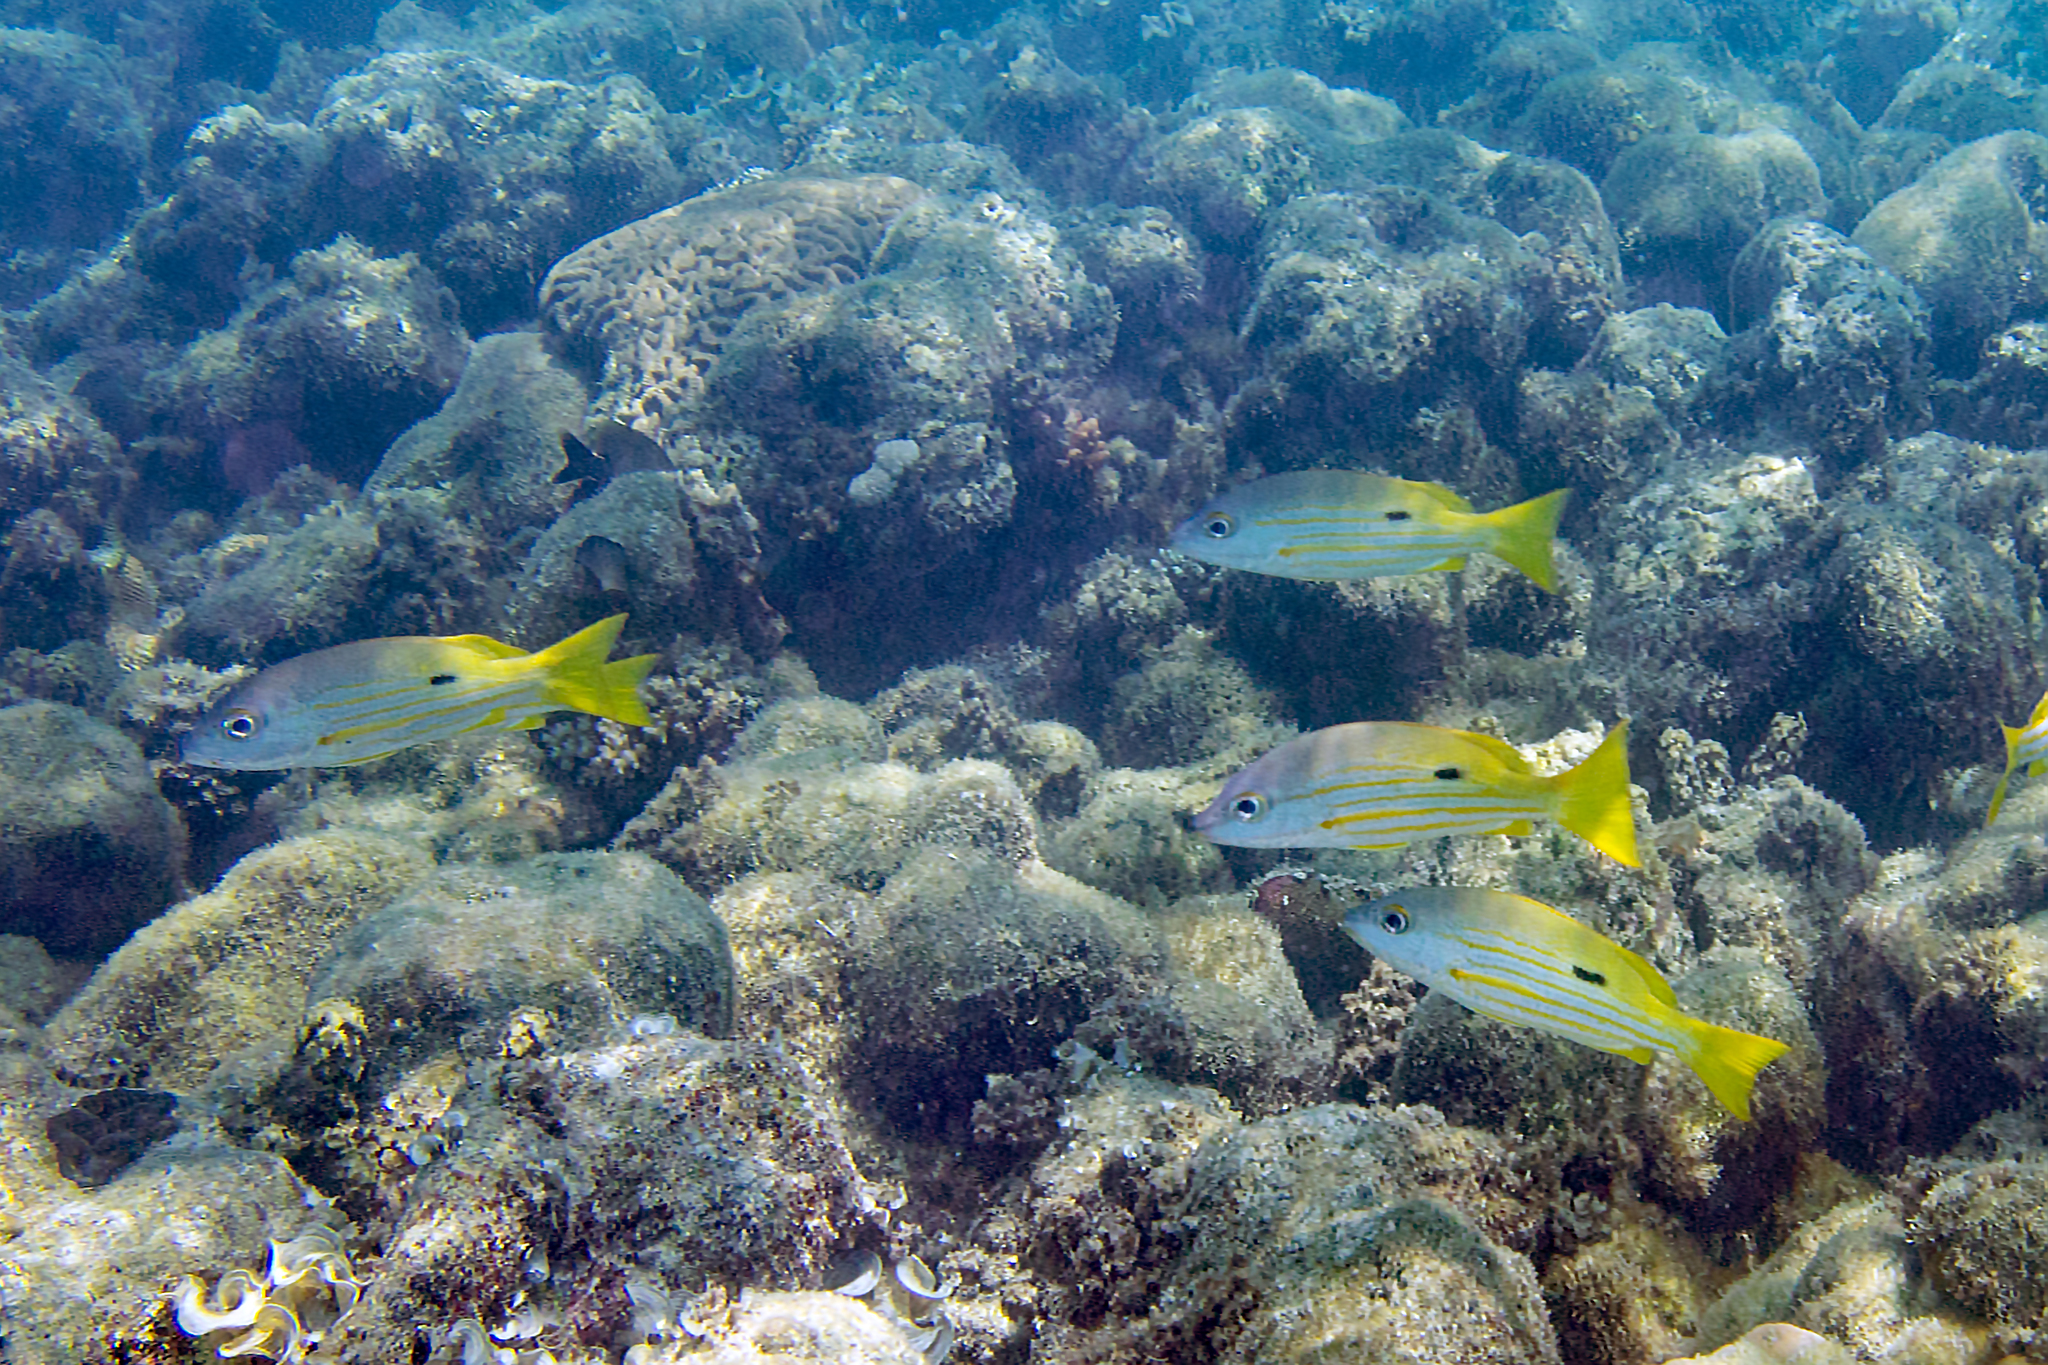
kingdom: Animalia
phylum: Chordata
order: Perciformes
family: Lutjanidae
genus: Lutjanus
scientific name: Lutjanus fulviflamma
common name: Blackspot snapper
